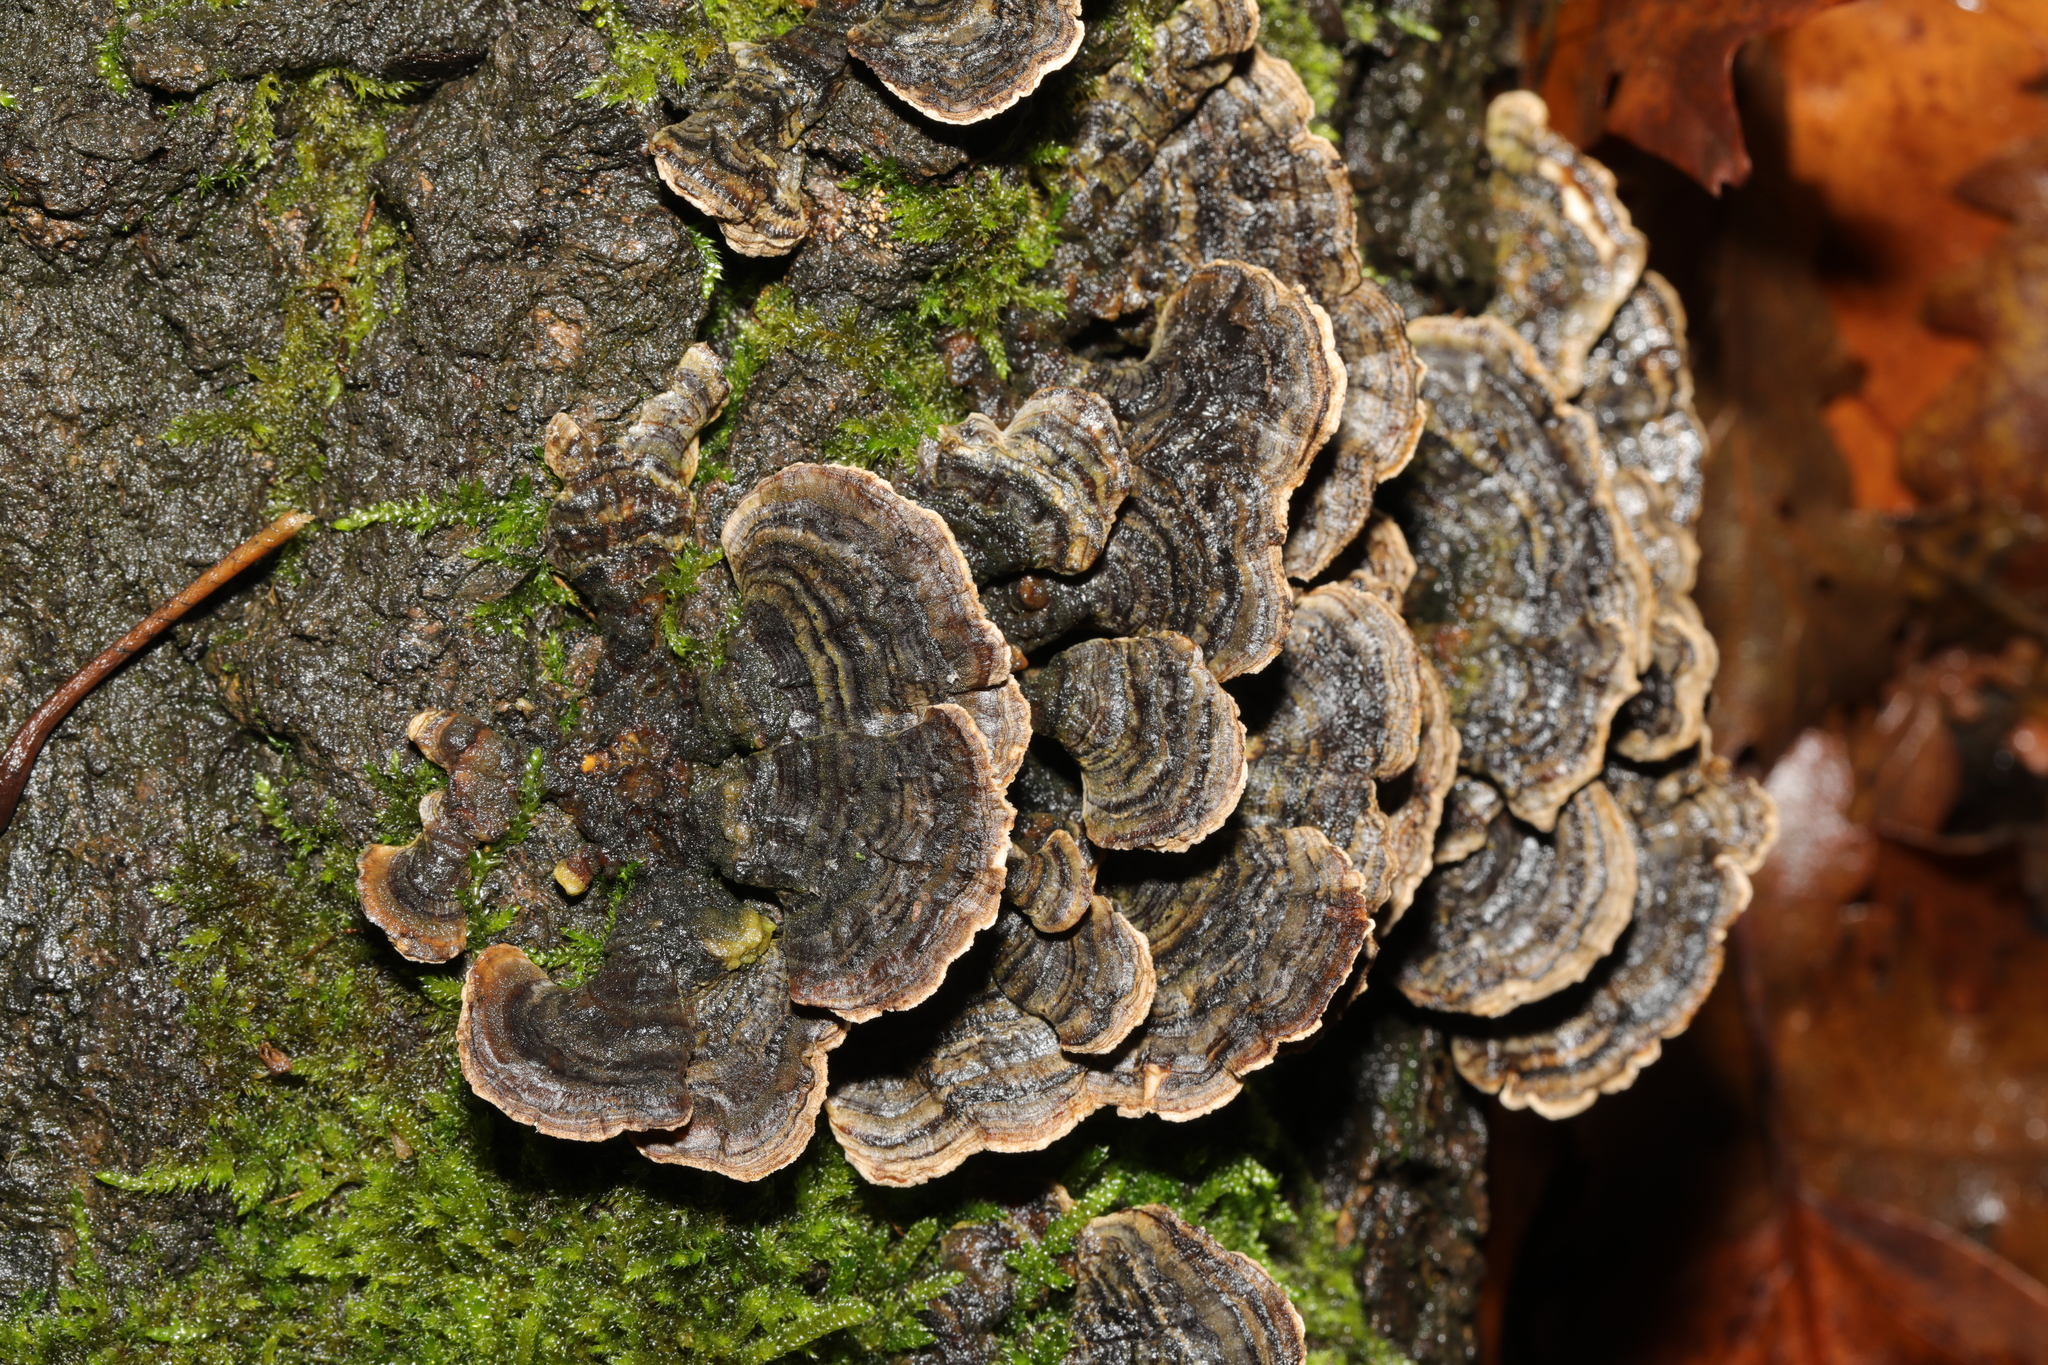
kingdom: Fungi
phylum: Basidiomycota
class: Agaricomycetes
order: Polyporales
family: Polyporaceae
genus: Trametes
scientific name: Trametes versicolor
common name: Turkeytail
